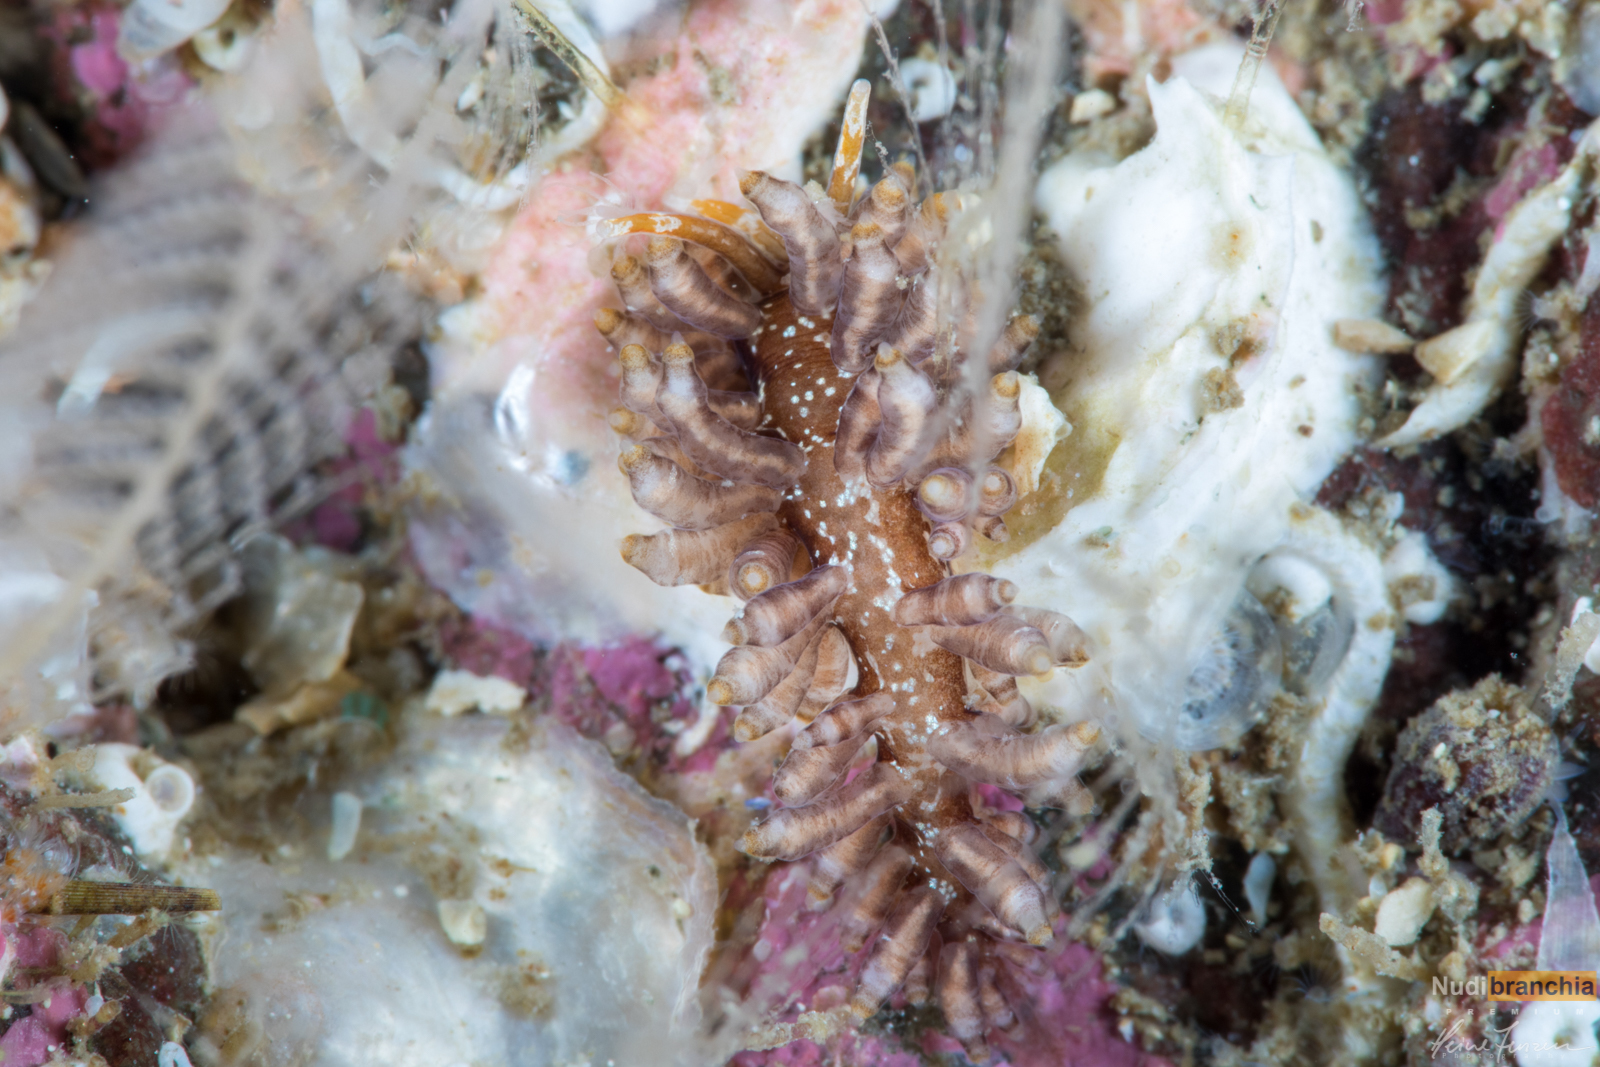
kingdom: Animalia
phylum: Mollusca
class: Gastropoda
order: Nudibranchia
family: Eubranchidae
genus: Eubranchus
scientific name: Eubranchus vittatus
